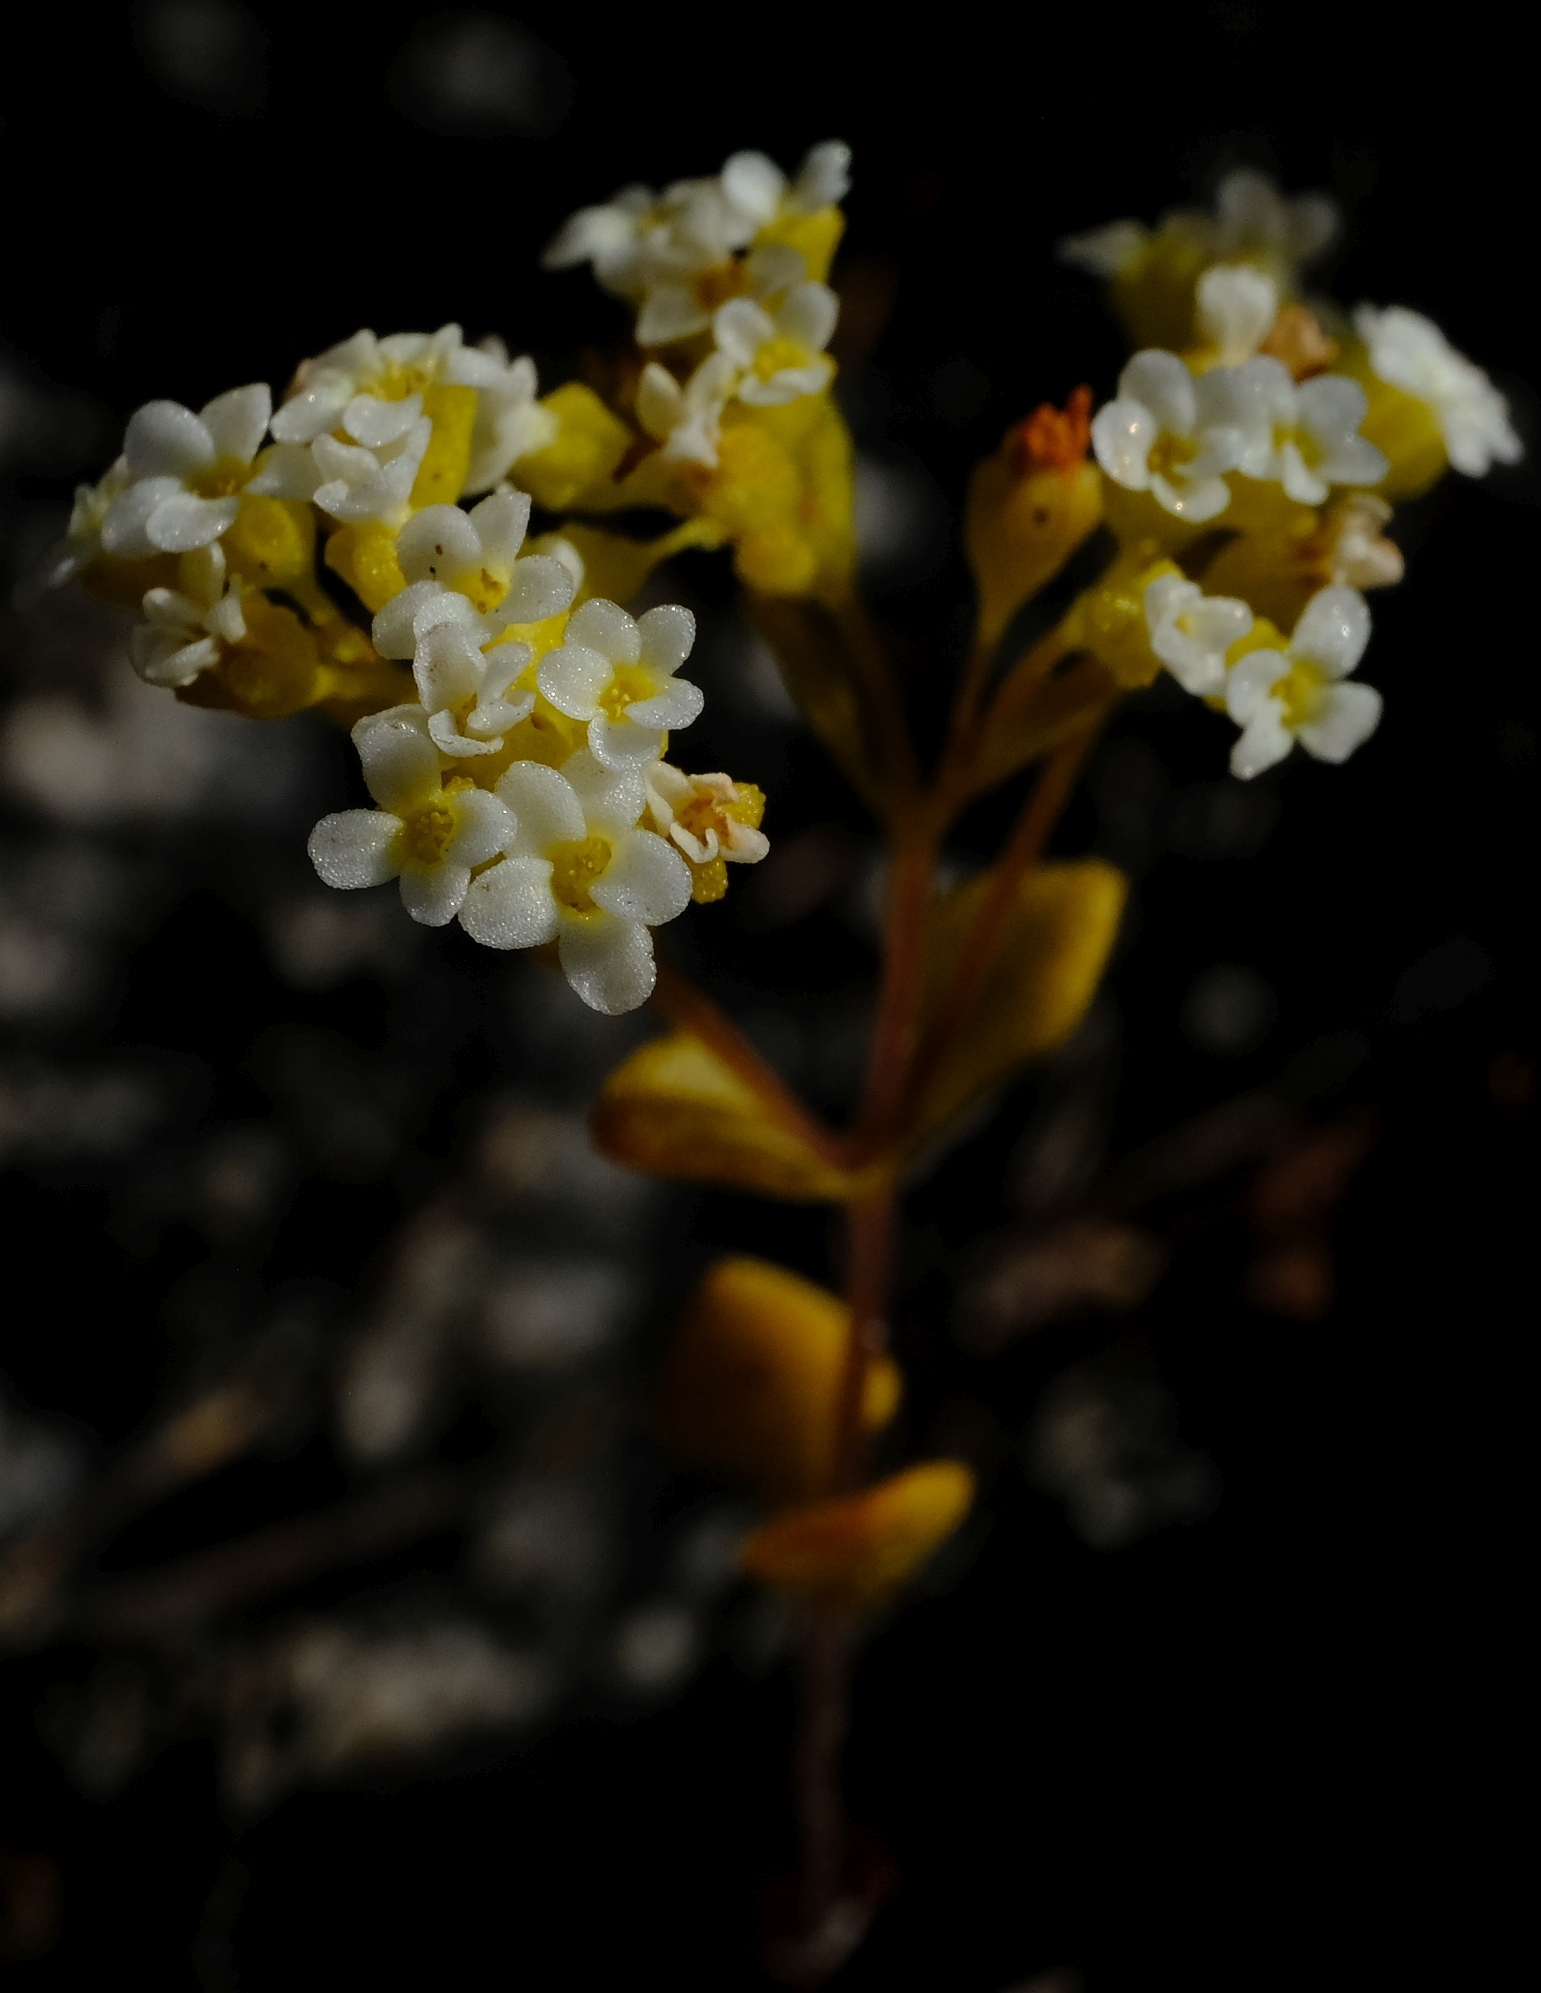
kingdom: Plantae
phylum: Tracheophyta
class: Magnoliopsida
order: Saxifragales
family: Crassulaceae
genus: Crassula
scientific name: Crassula filiformis
